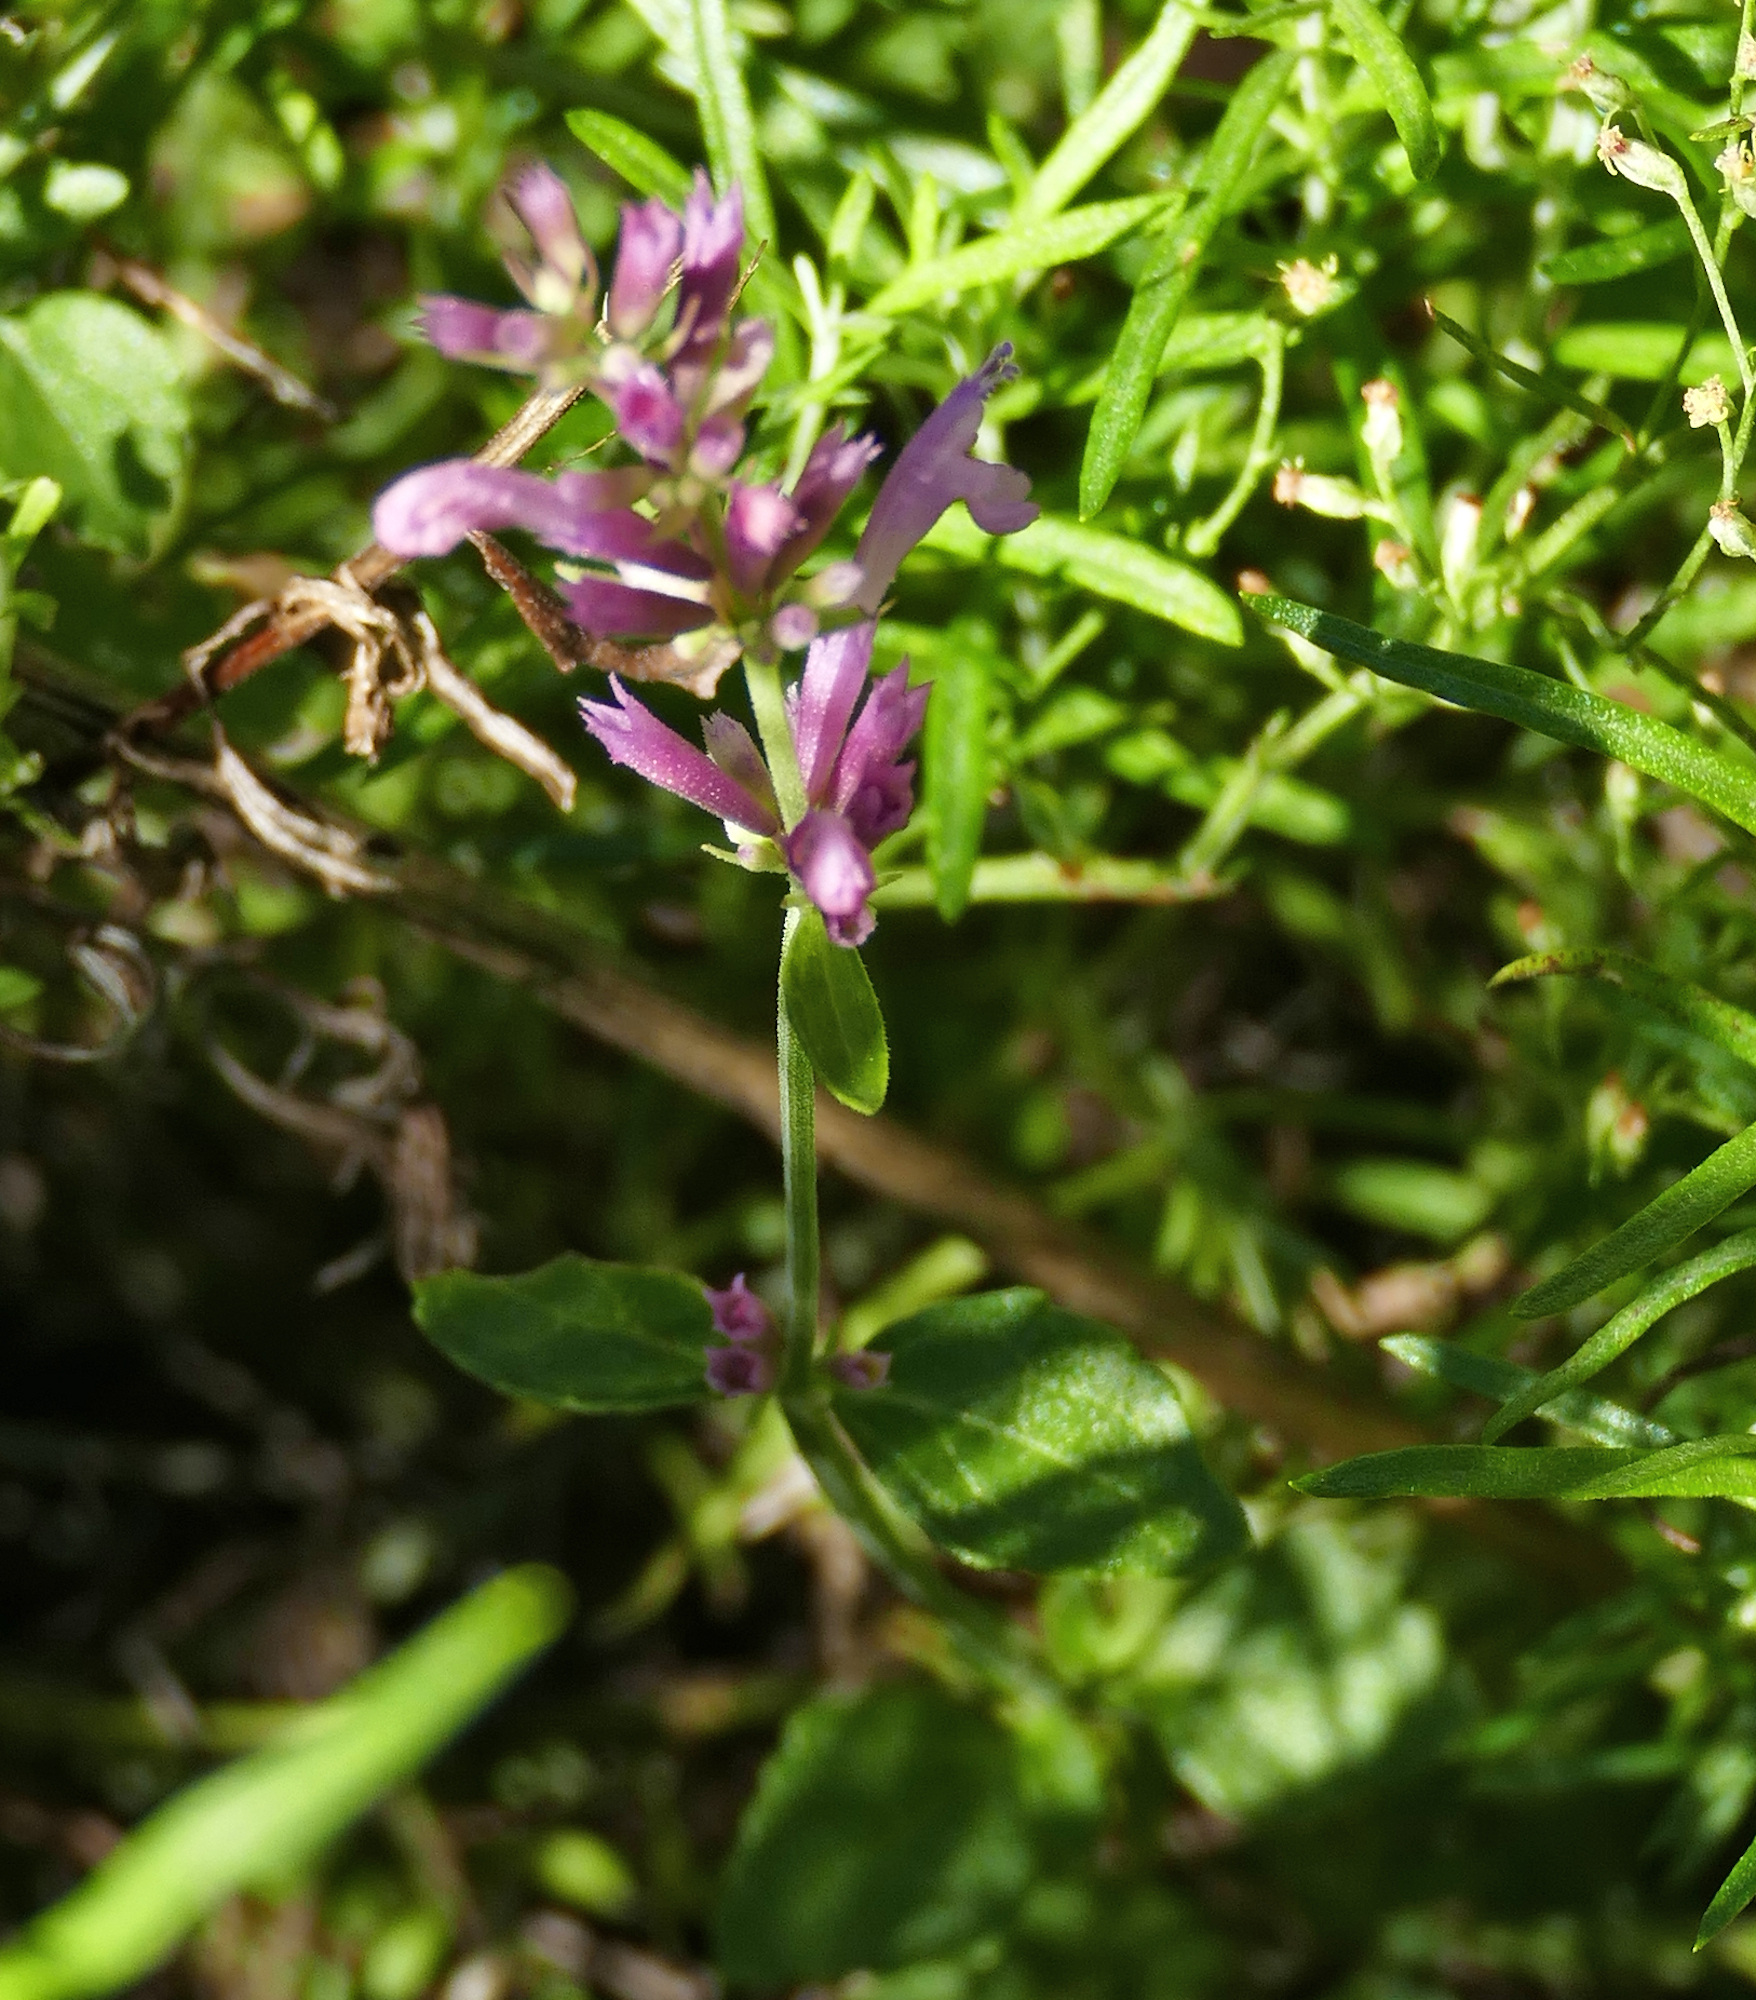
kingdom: Plantae
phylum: Tracheophyta
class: Magnoliopsida
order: Lamiales
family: Lamiaceae
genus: Agastache
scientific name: Agastache pallidiflora
